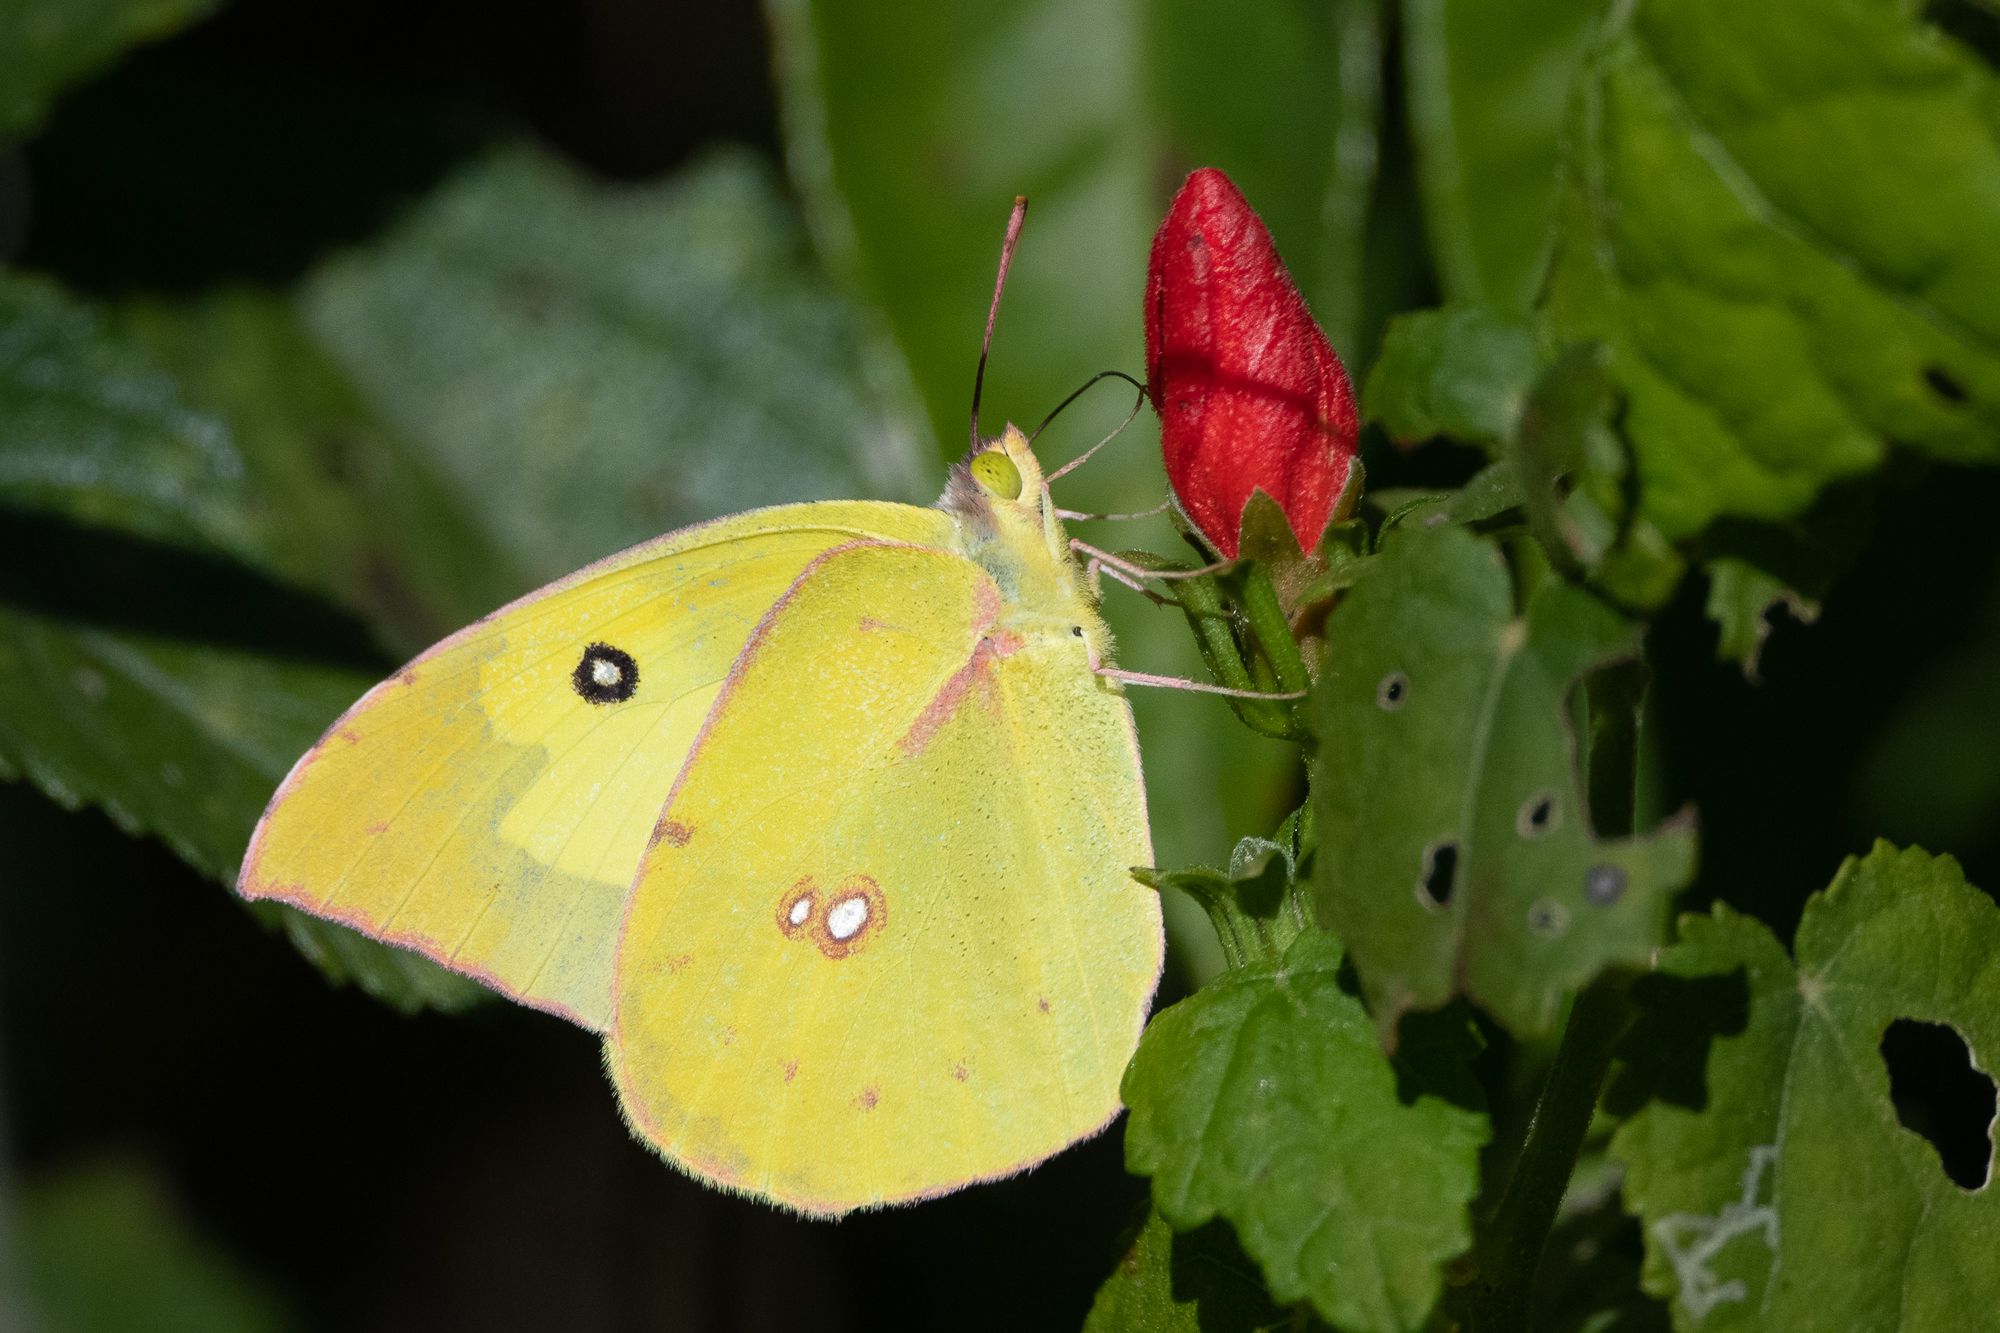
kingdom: Animalia
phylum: Arthropoda
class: Insecta
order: Lepidoptera
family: Pieridae
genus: Zerene
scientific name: Zerene cesonia
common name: Southern dogface
